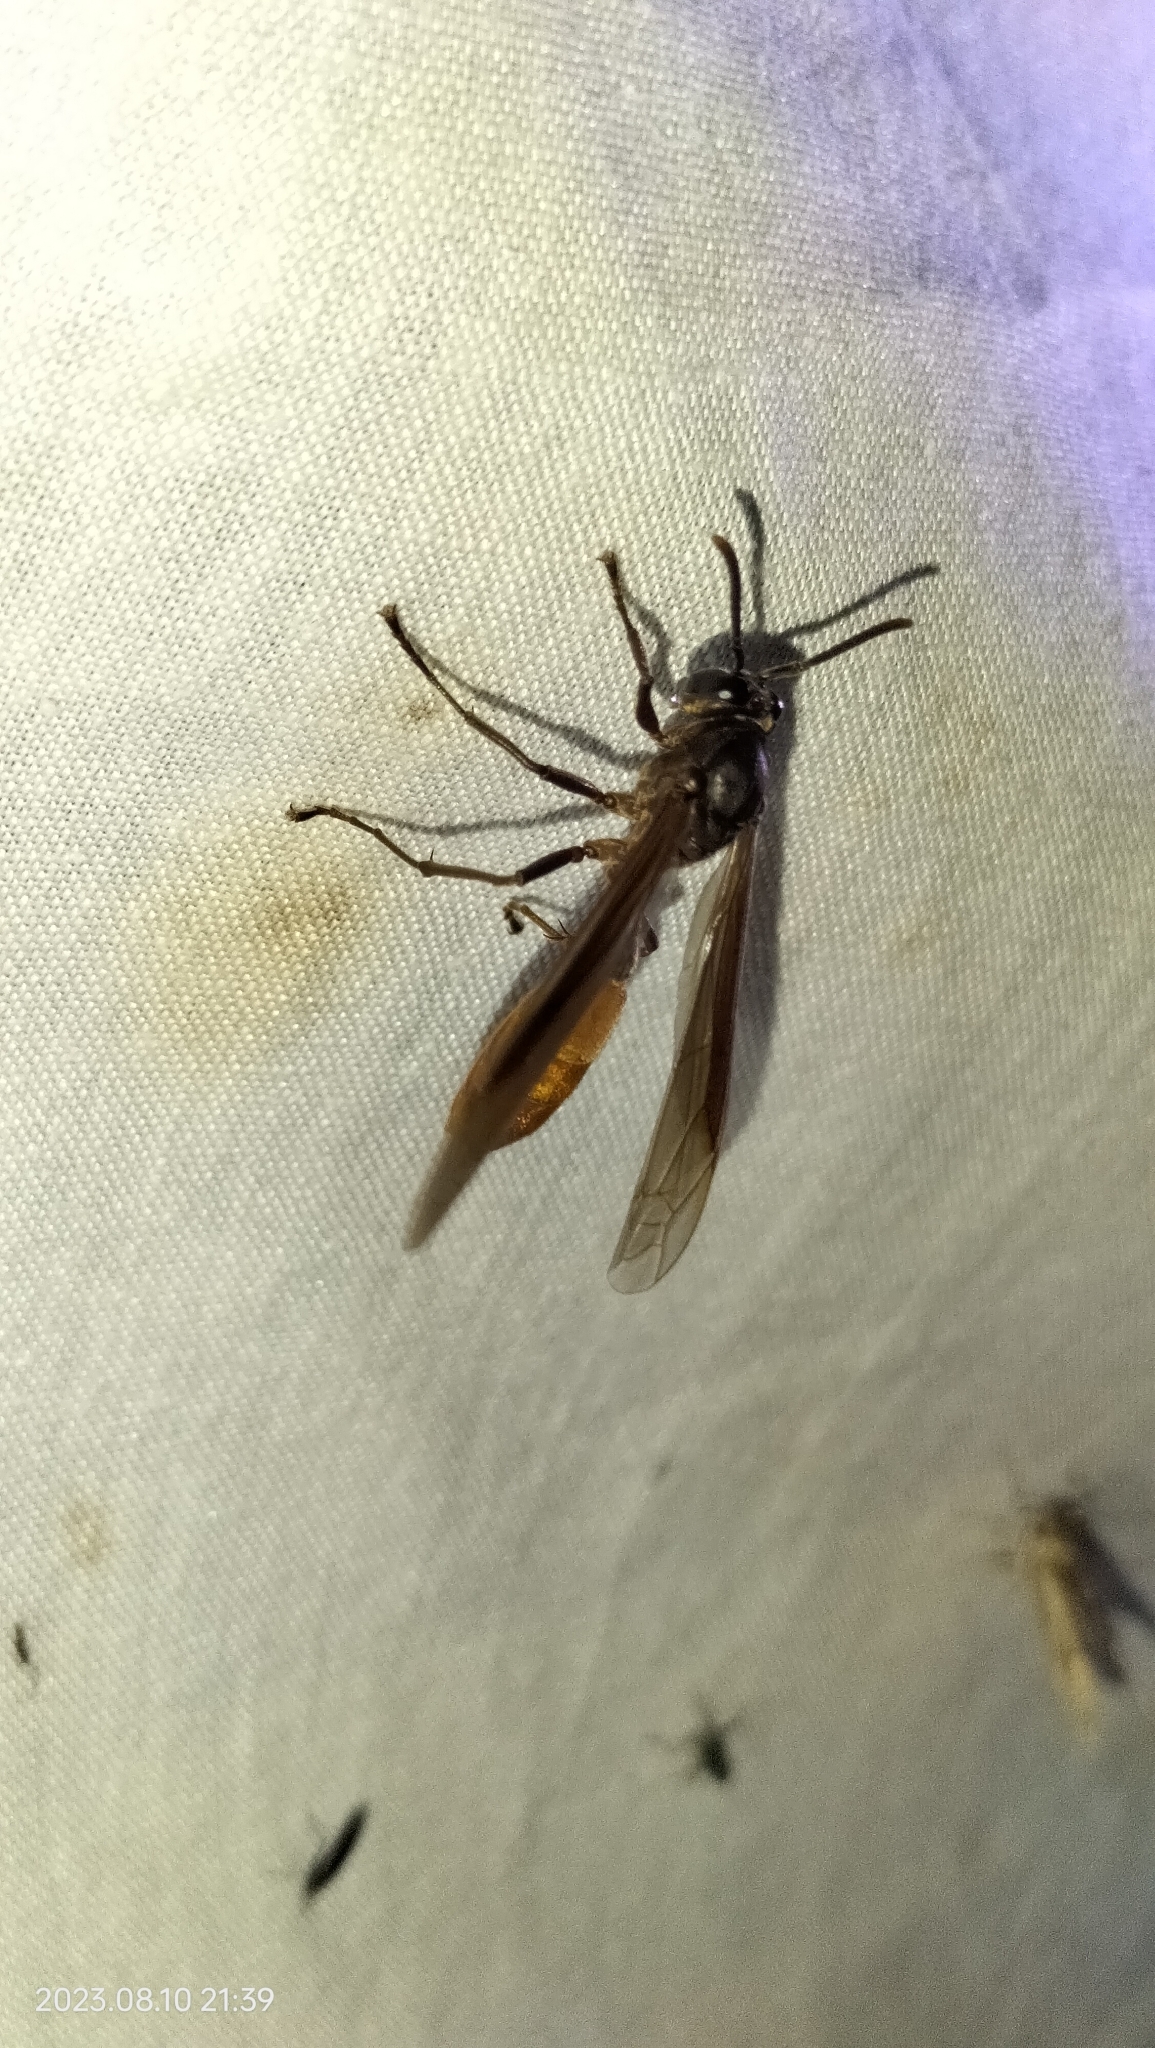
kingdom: Animalia
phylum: Arthropoda
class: Insecta
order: Hymenoptera
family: Vespidae
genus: Apoica
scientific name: Apoica thoracica
